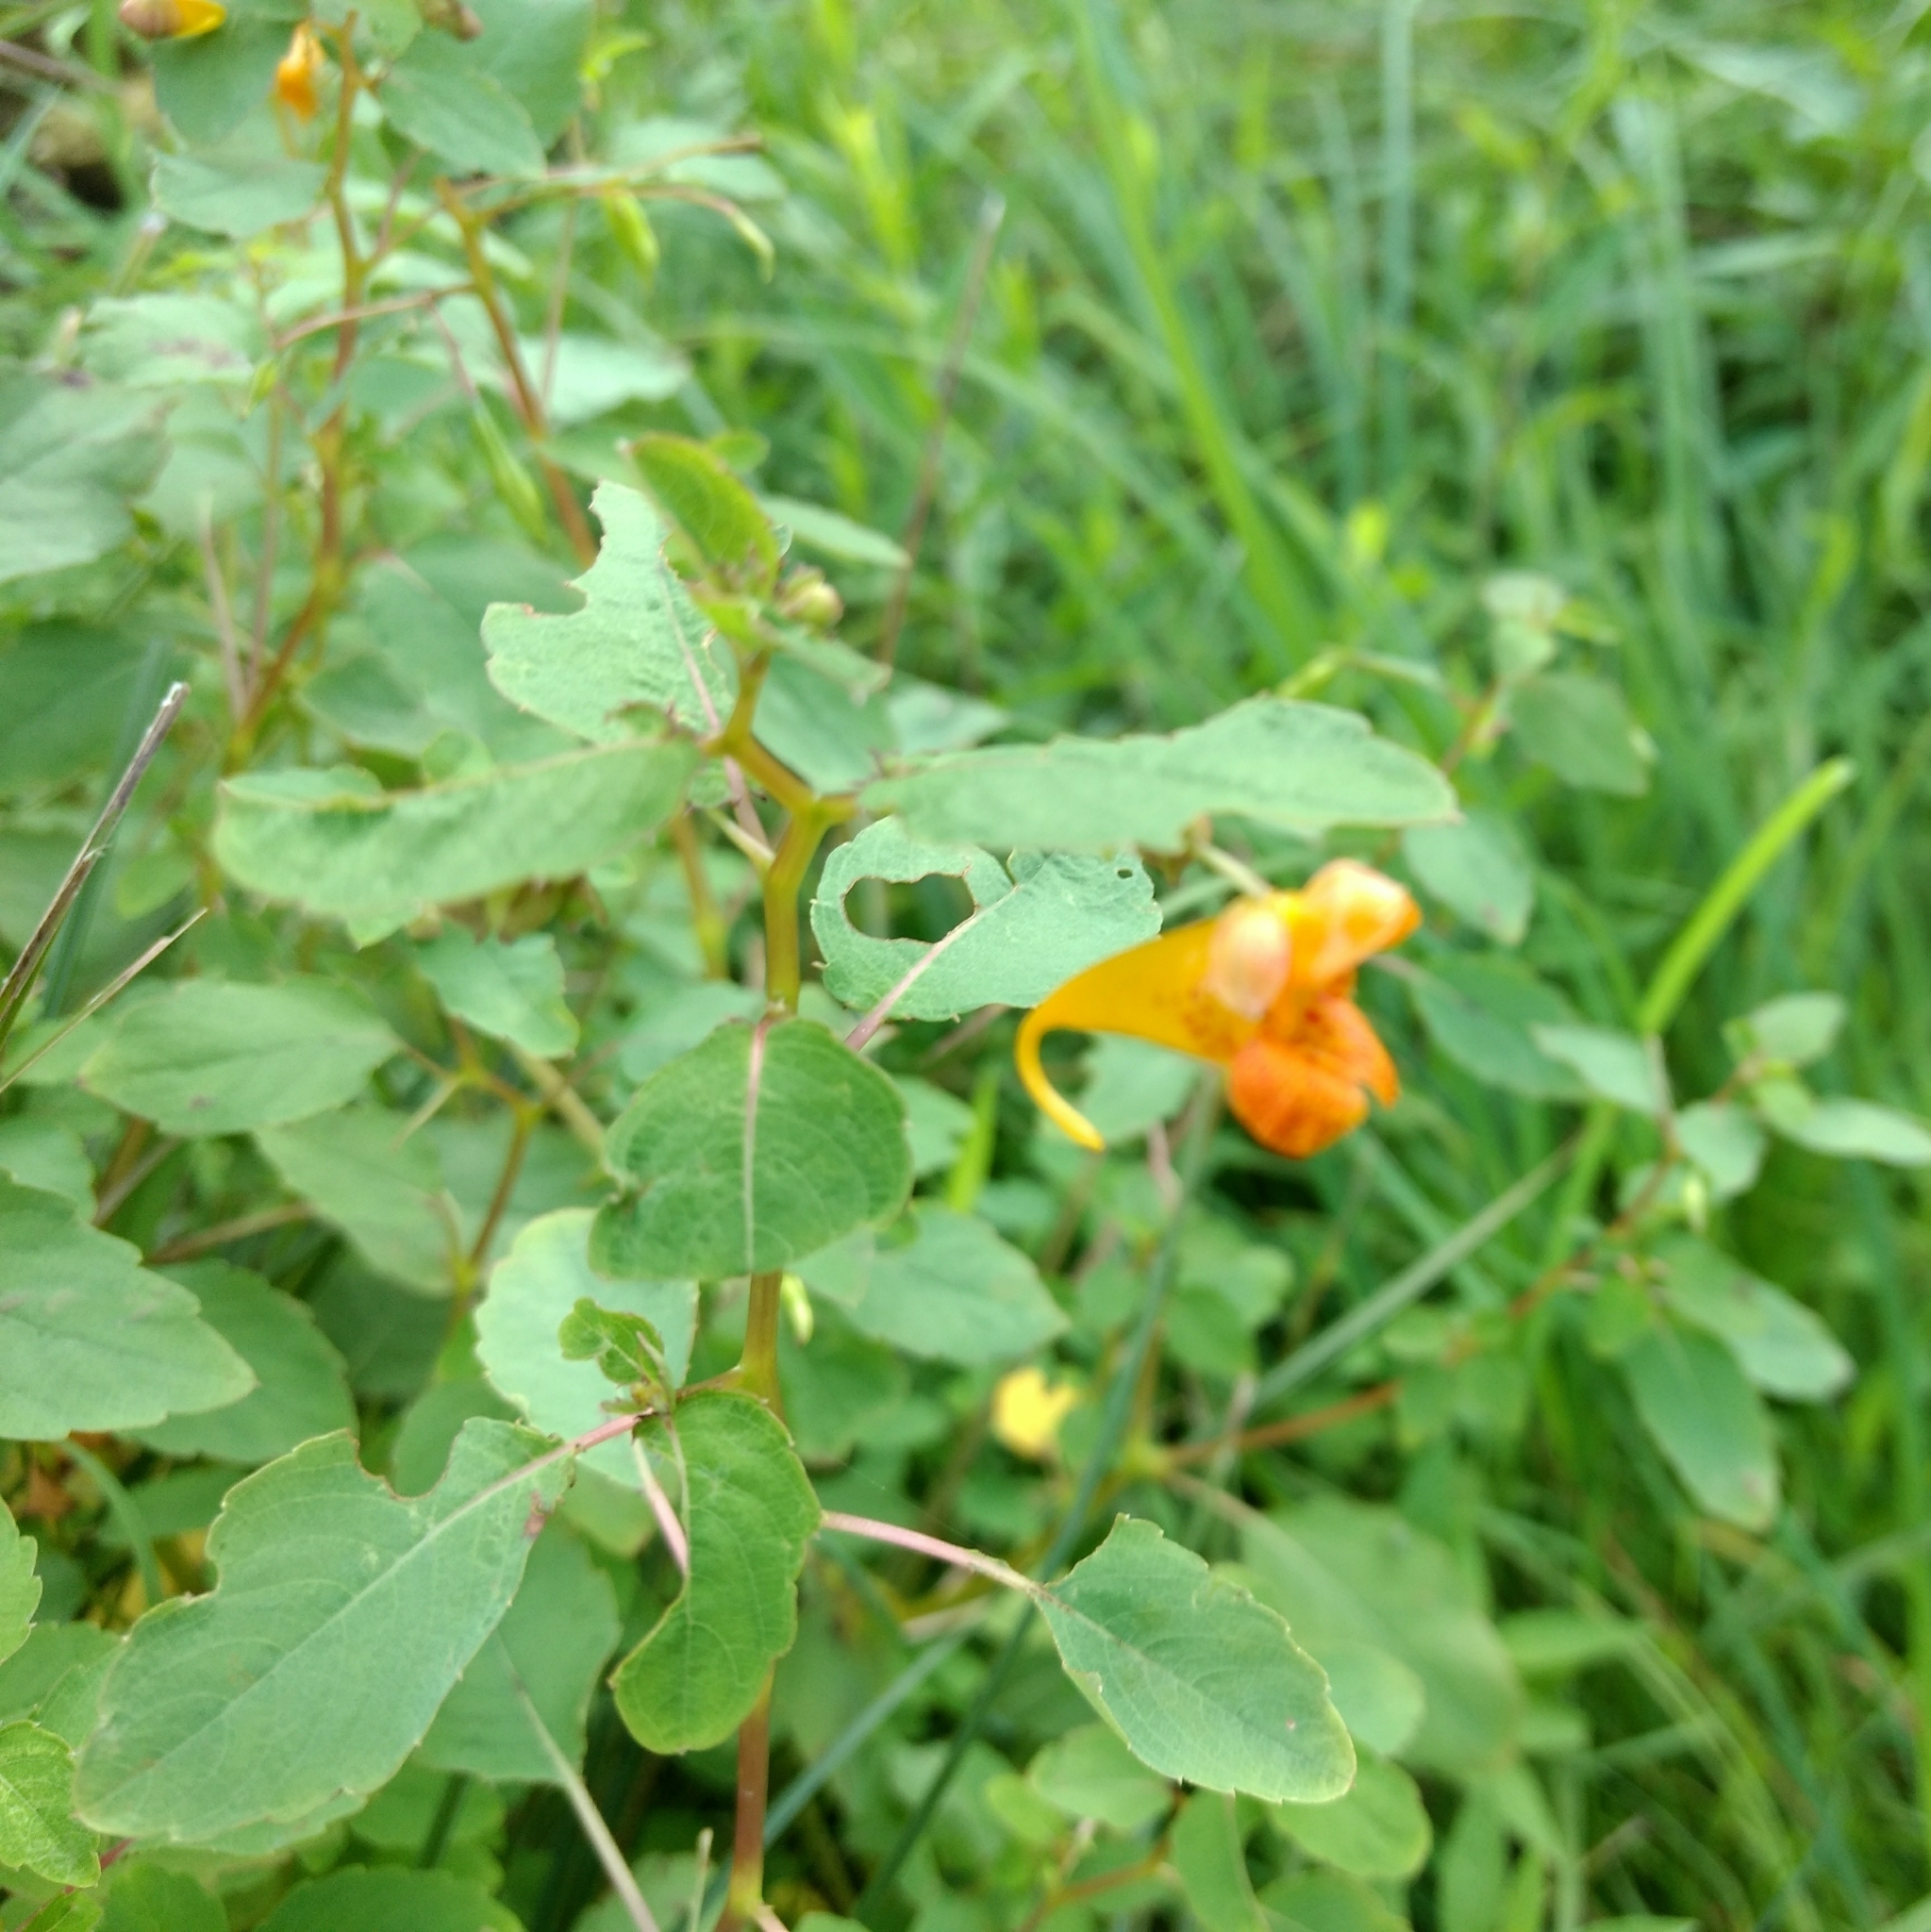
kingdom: Plantae
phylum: Tracheophyta
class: Magnoliopsida
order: Ericales
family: Balsaminaceae
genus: Impatiens
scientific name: Impatiens capensis
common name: Orange balsam
